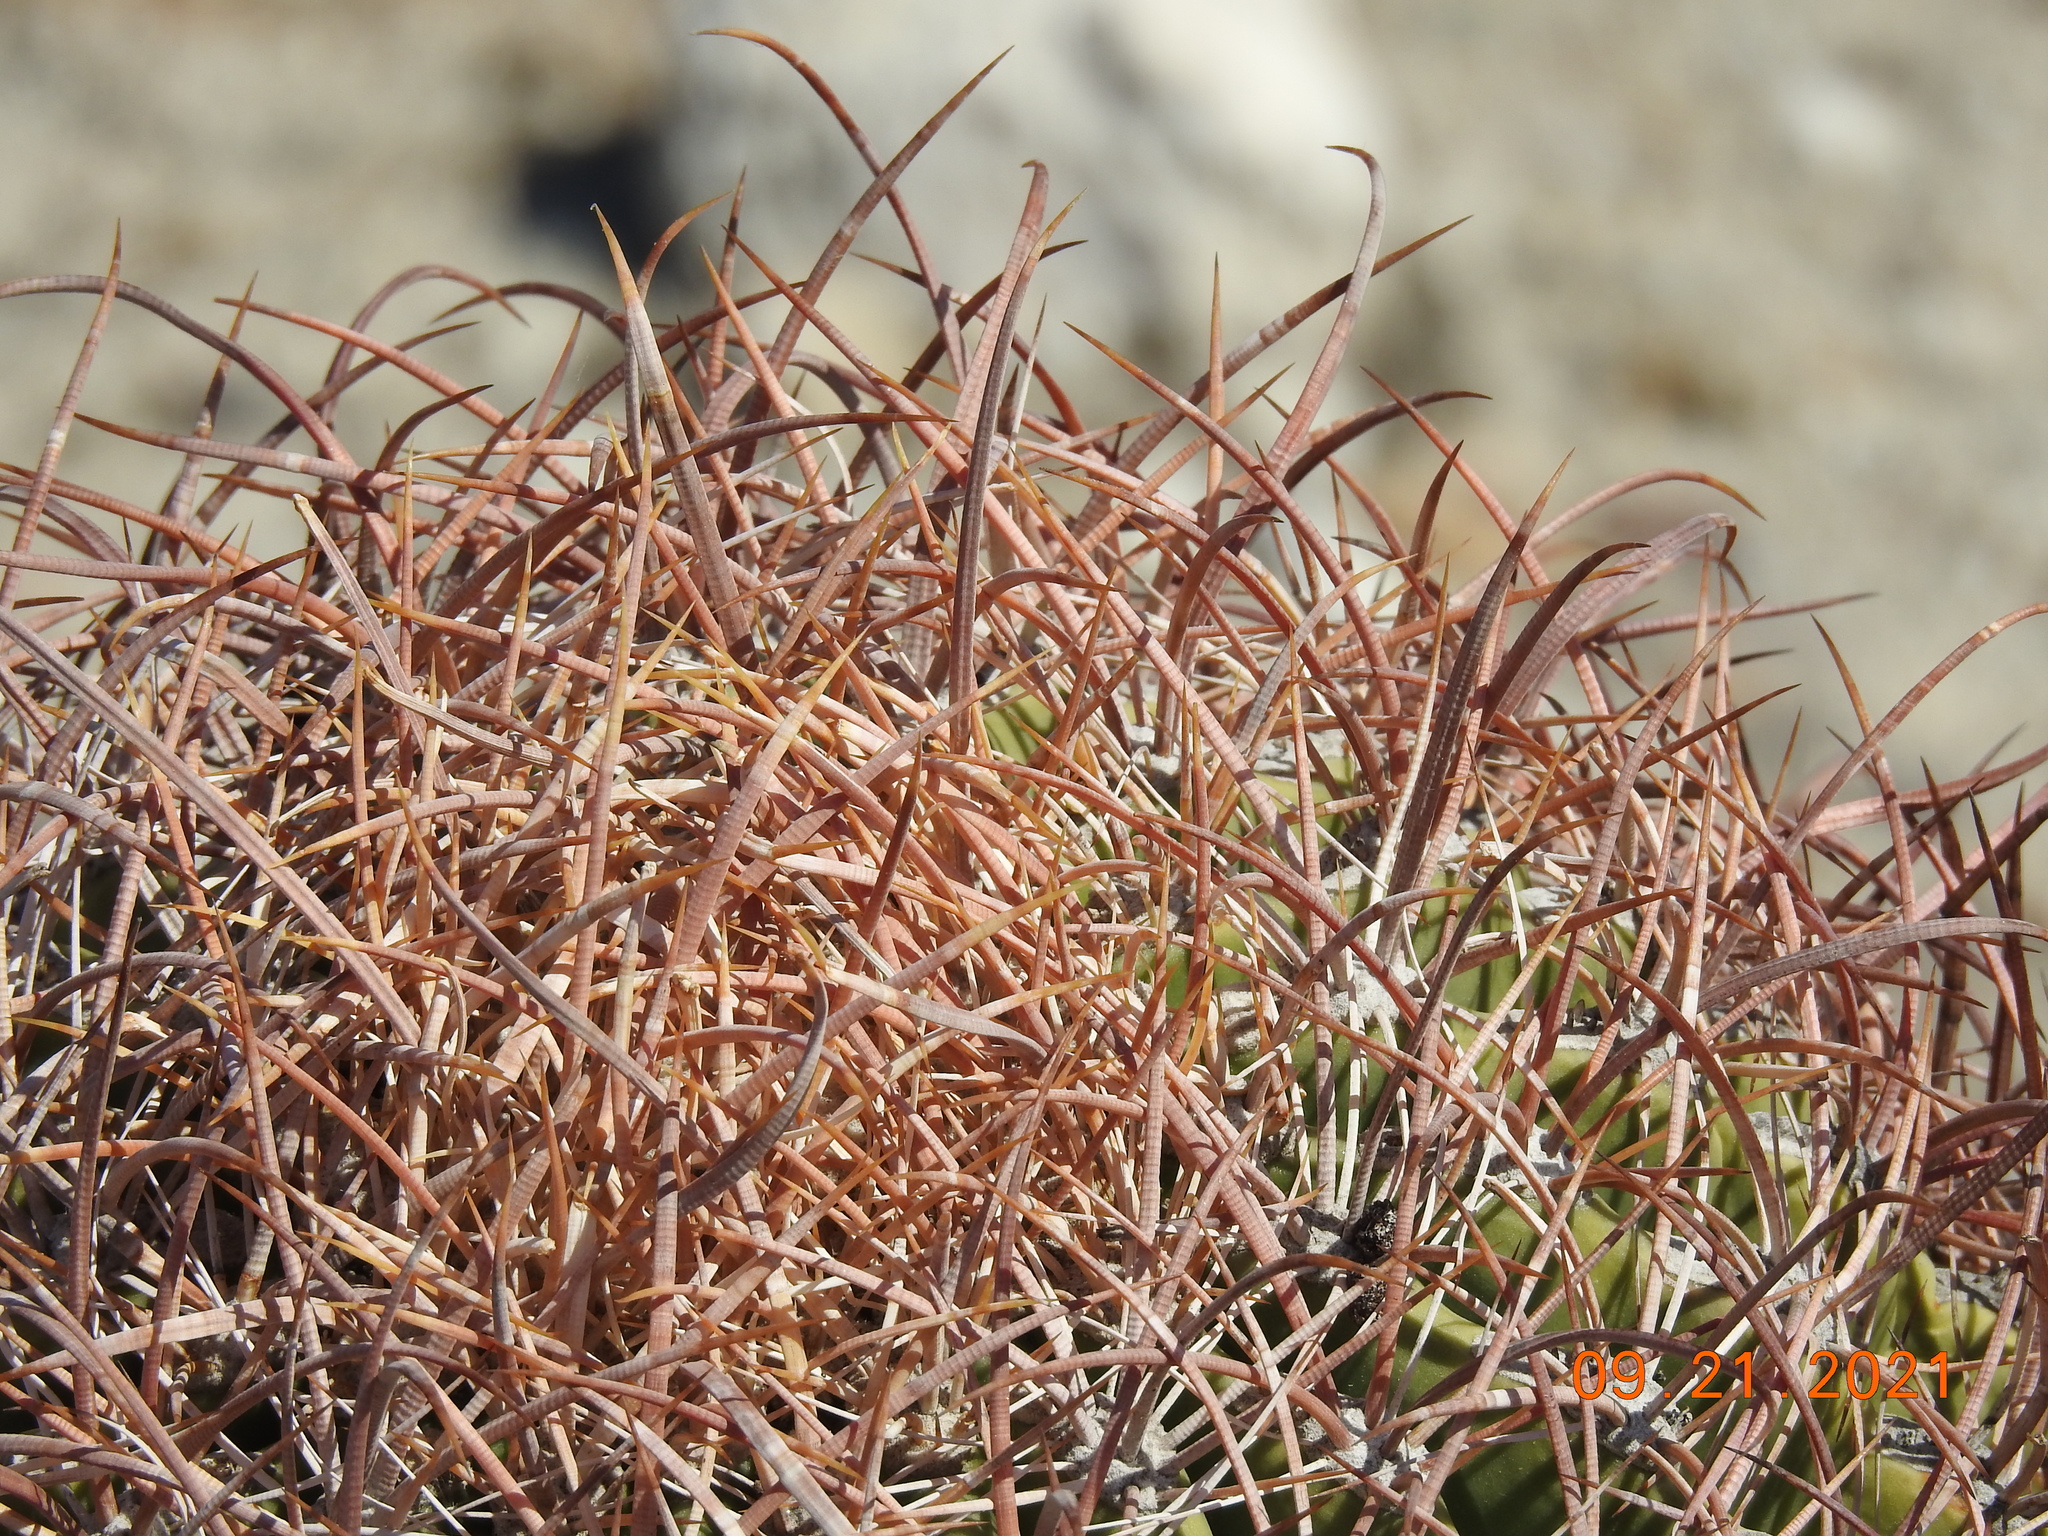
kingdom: Plantae
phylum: Tracheophyta
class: Magnoliopsida
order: Caryophyllales
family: Cactaceae
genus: Ferocactus
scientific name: Ferocactus cylindraceus
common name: California barrel cactus
